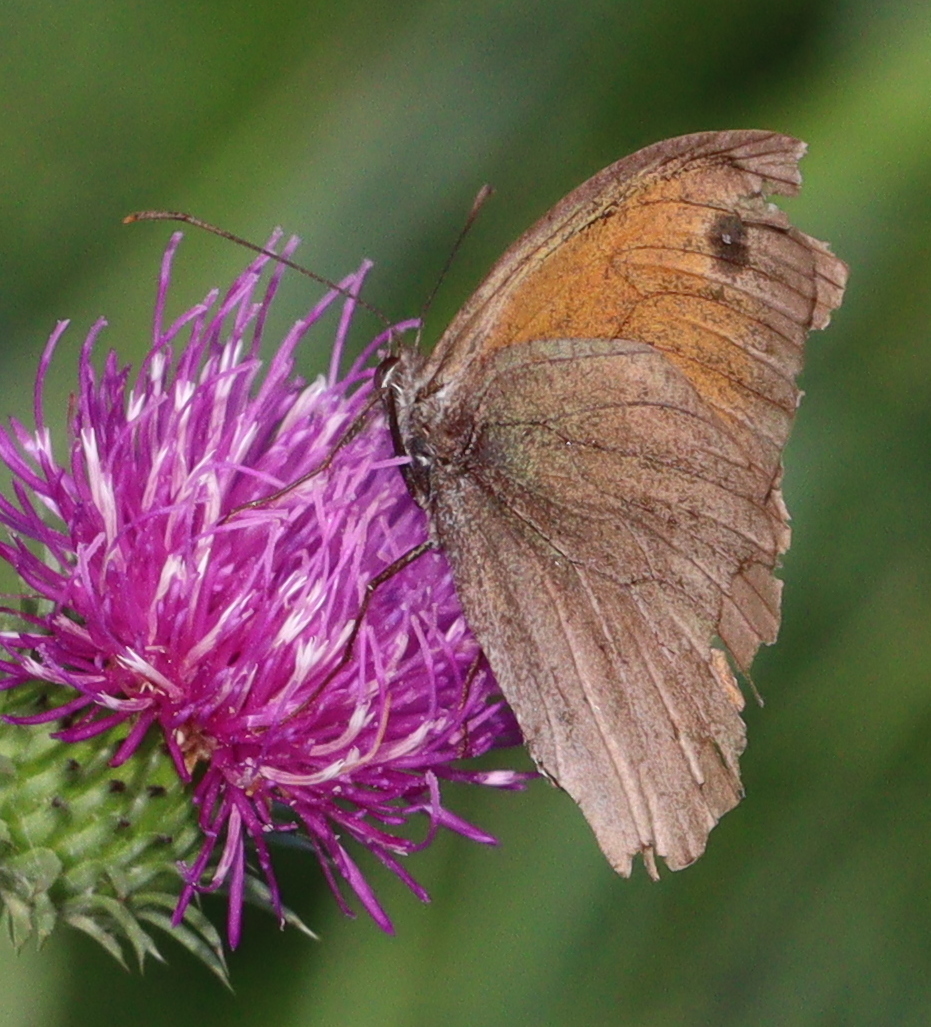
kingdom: Animalia
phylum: Arthropoda
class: Insecta
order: Lepidoptera
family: Nymphalidae
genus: Maniola
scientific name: Maniola jurtina
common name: Meadow brown
